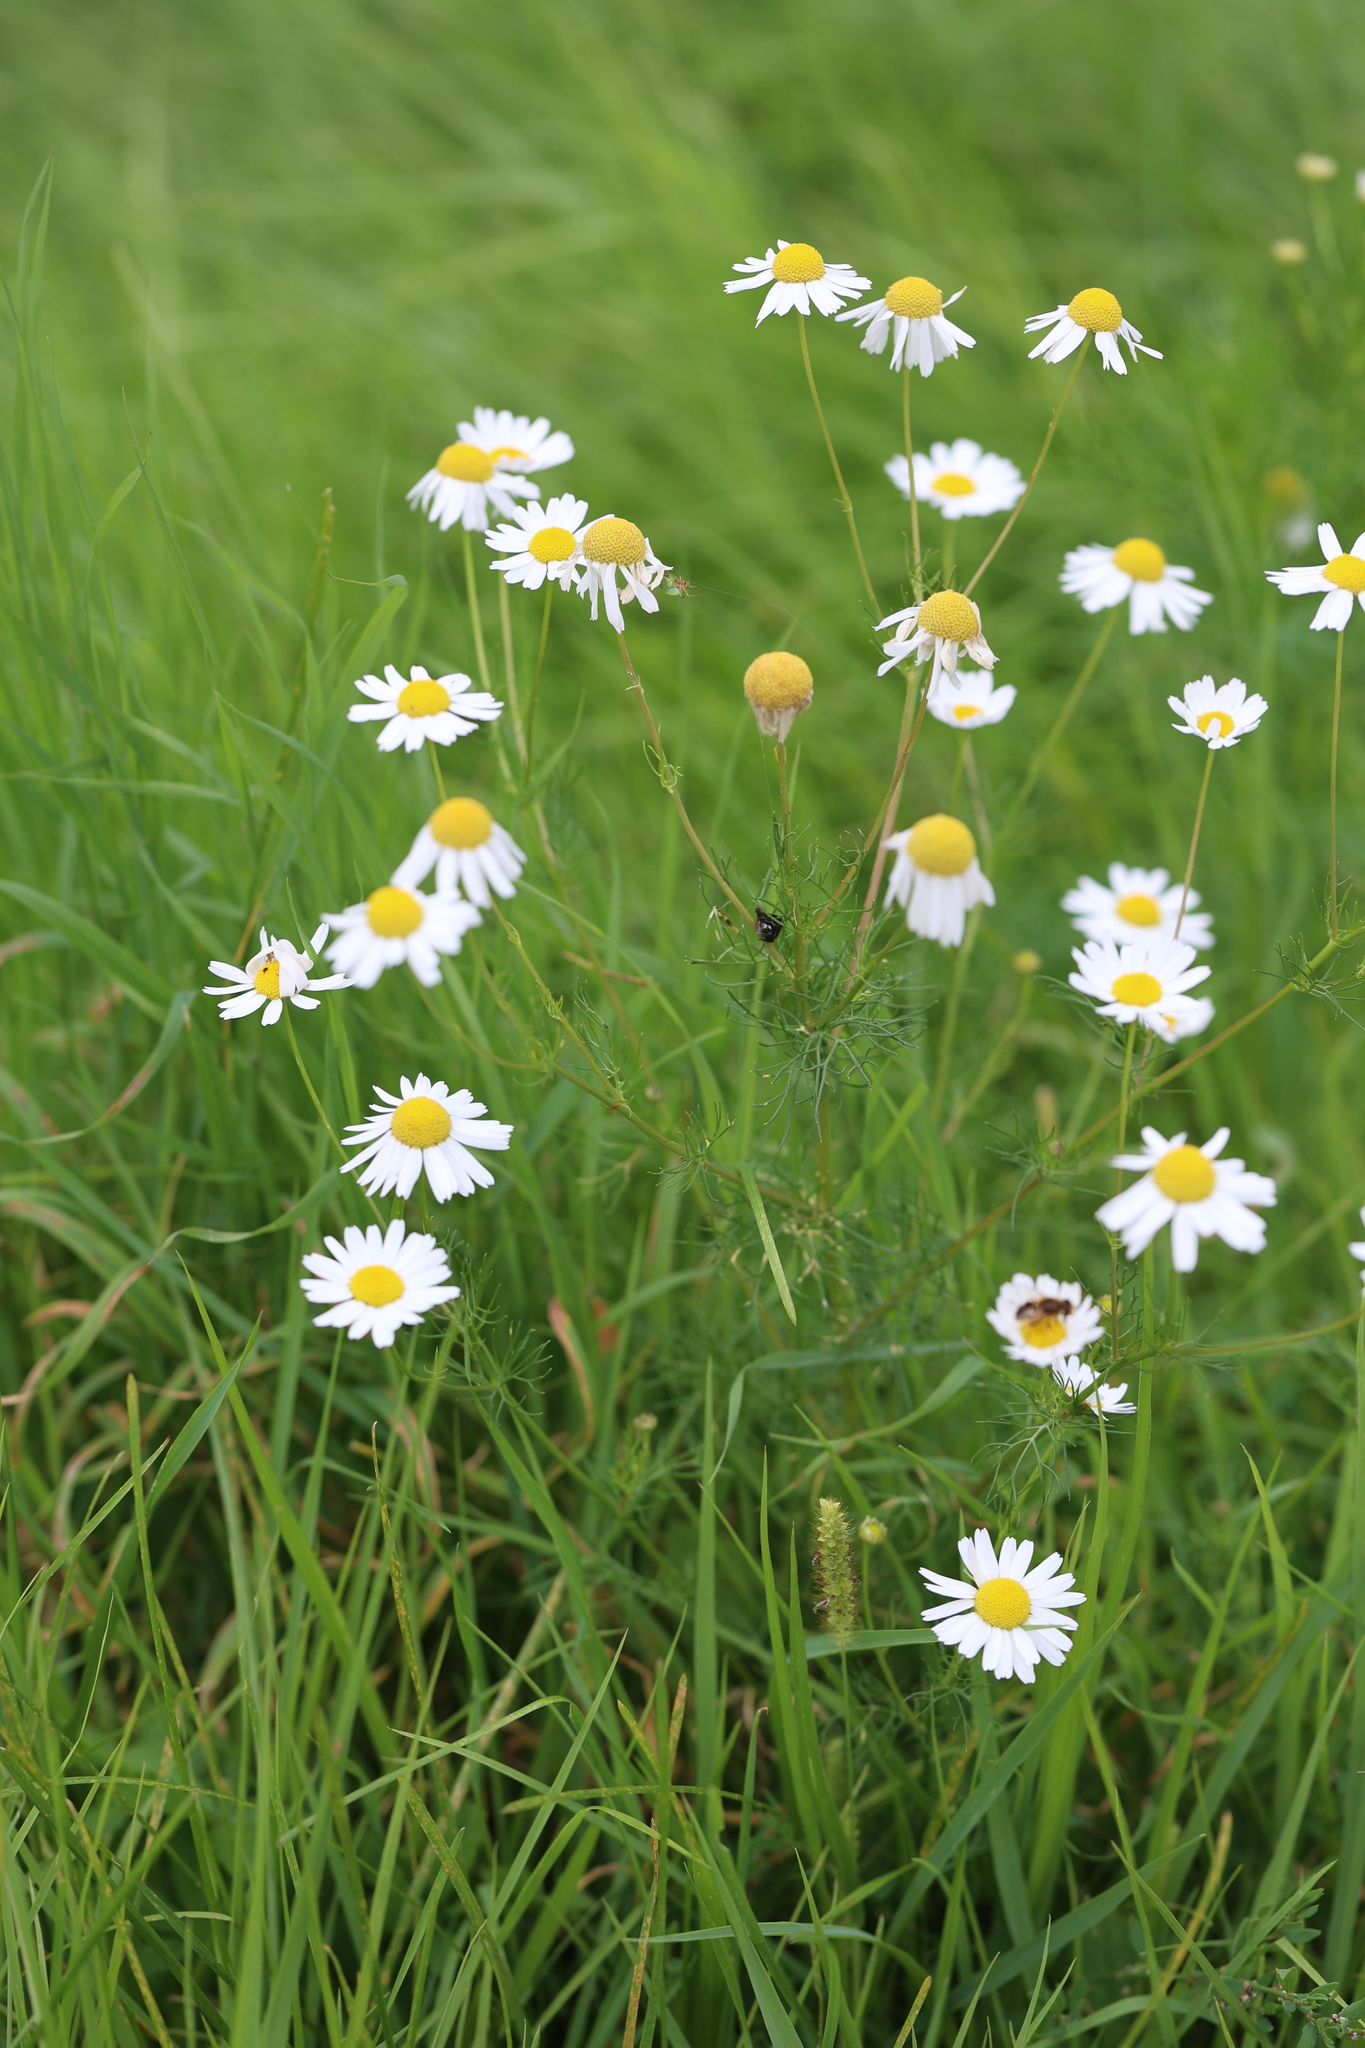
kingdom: Plantae
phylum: Tracheophyta
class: Magnoliopsida
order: Asterales
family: Asteraceae
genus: Tripleurospermum
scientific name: Tripleurospermum inodorum
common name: Scentless mayweed
